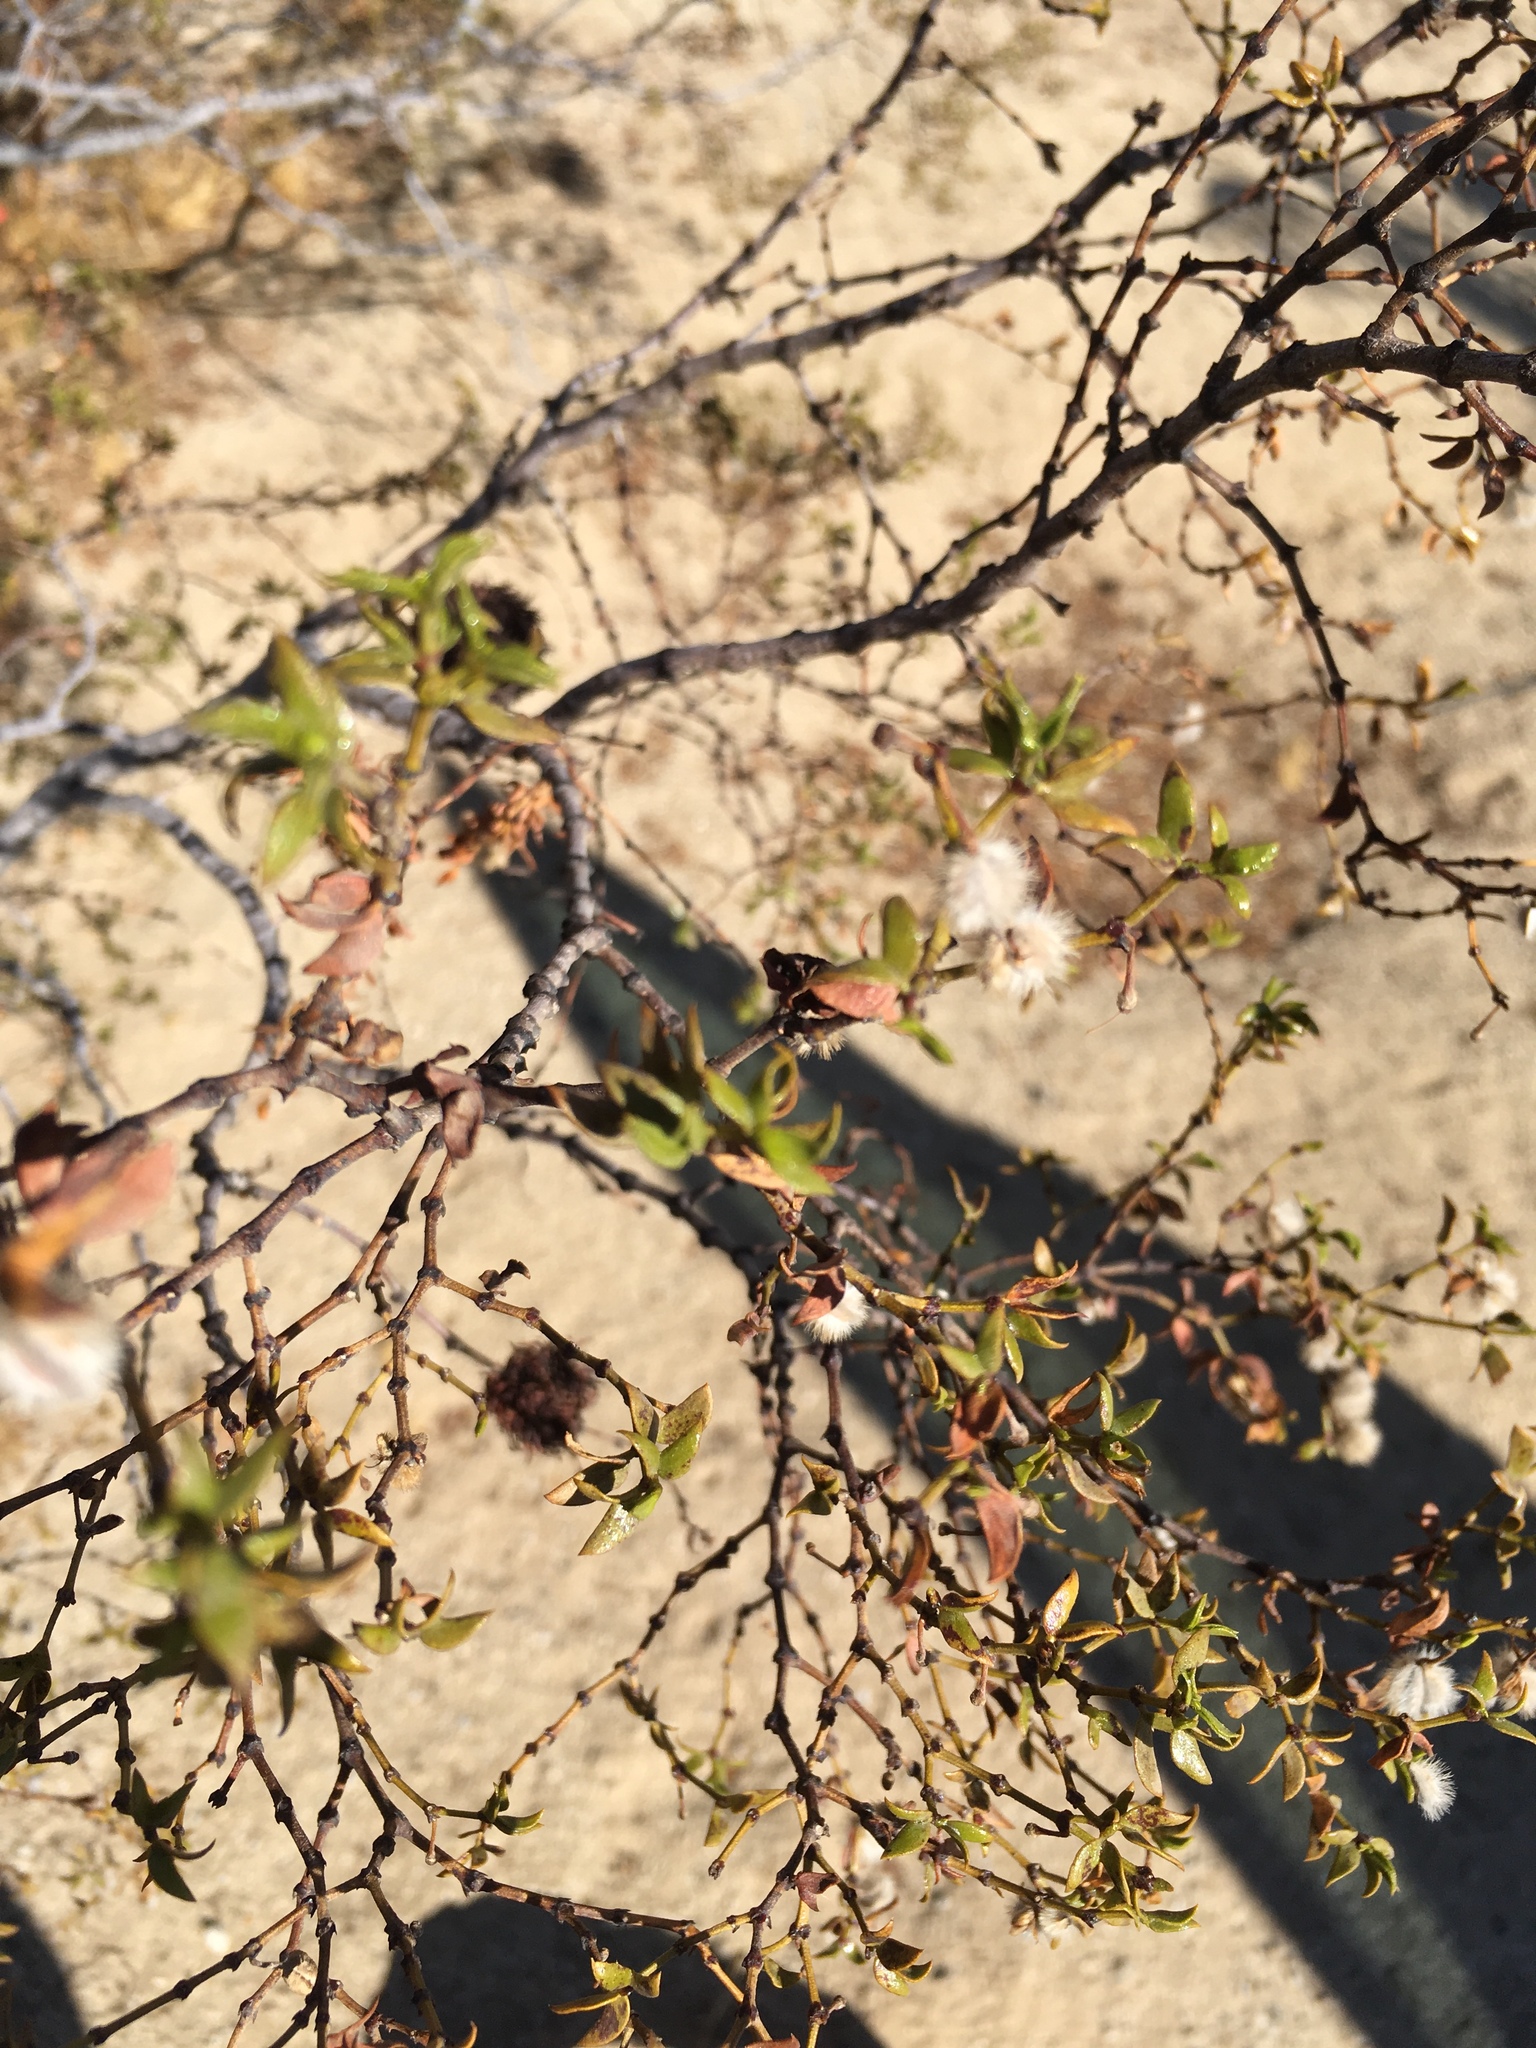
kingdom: Animalia
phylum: Arthropoda
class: Insecta
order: Diptera
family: Cecidomyiidae
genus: Asphondylia
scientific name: Asphondylia auripila
